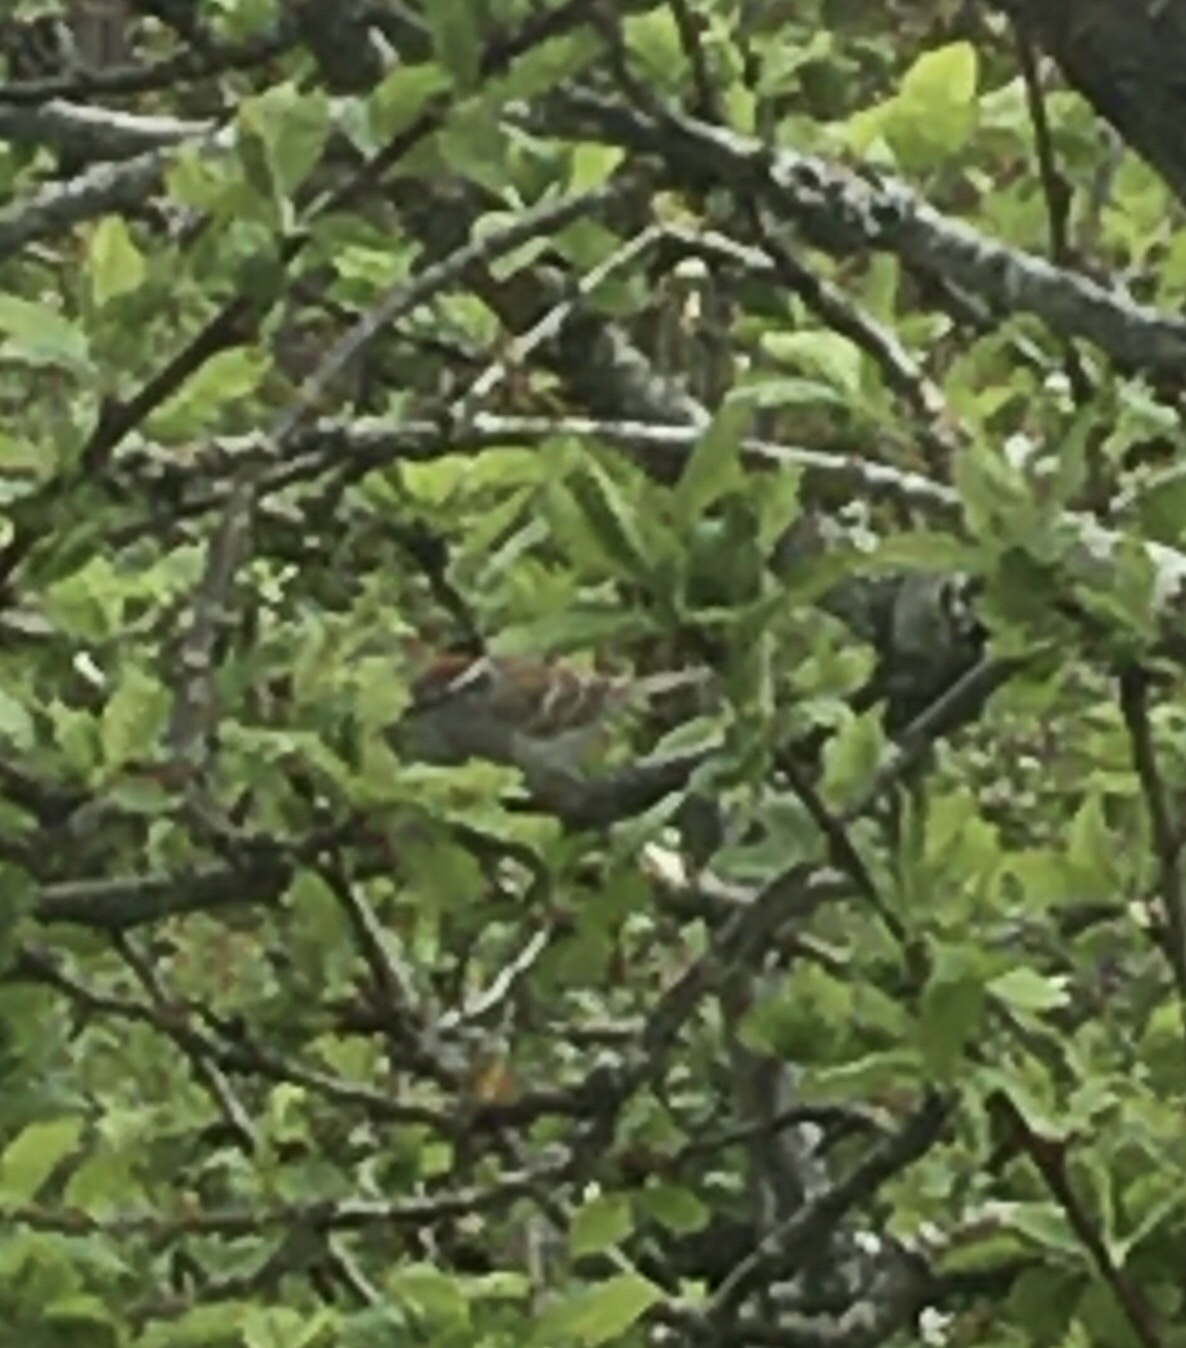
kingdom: Animalia
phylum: Chordata
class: Aves
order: Passeriformes
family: Passerellidae
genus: Spizella
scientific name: Spizella passerina
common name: Chipping sparrow
